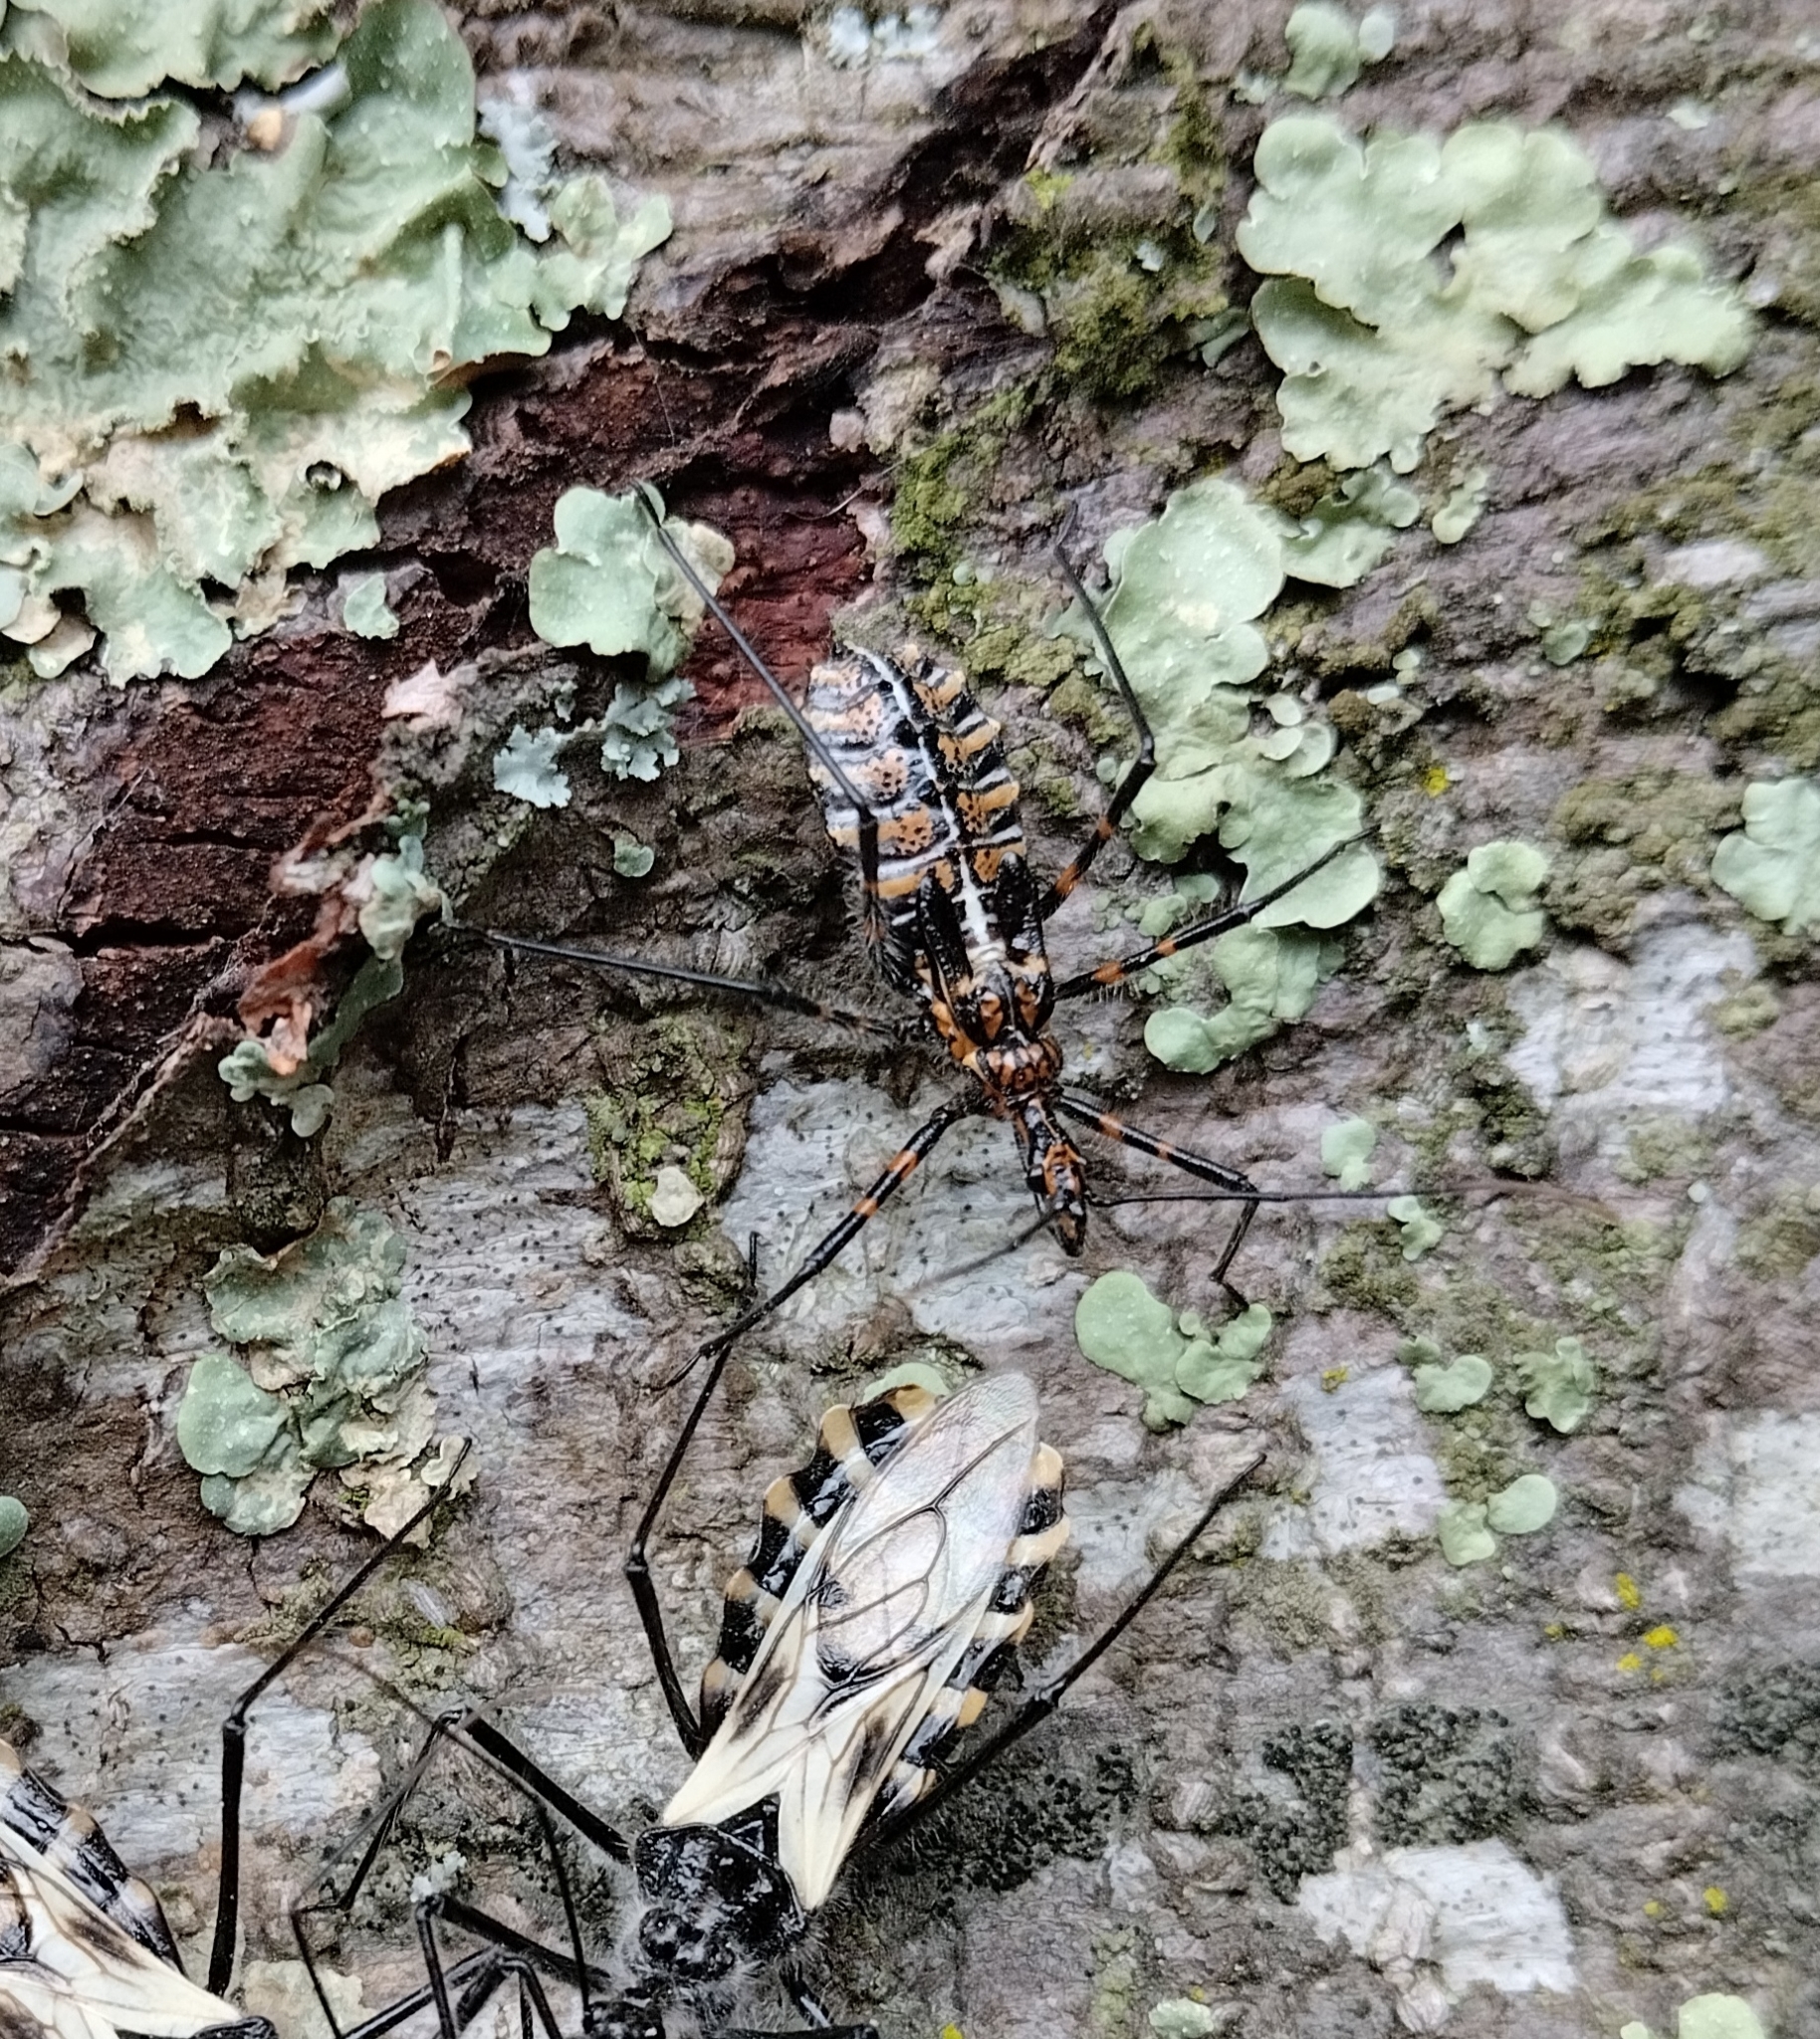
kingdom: Animalia
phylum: Arthropoda
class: Insecta
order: Hemiptera
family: Reduviidae
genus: Ambastus
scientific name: Ambastus villosus
